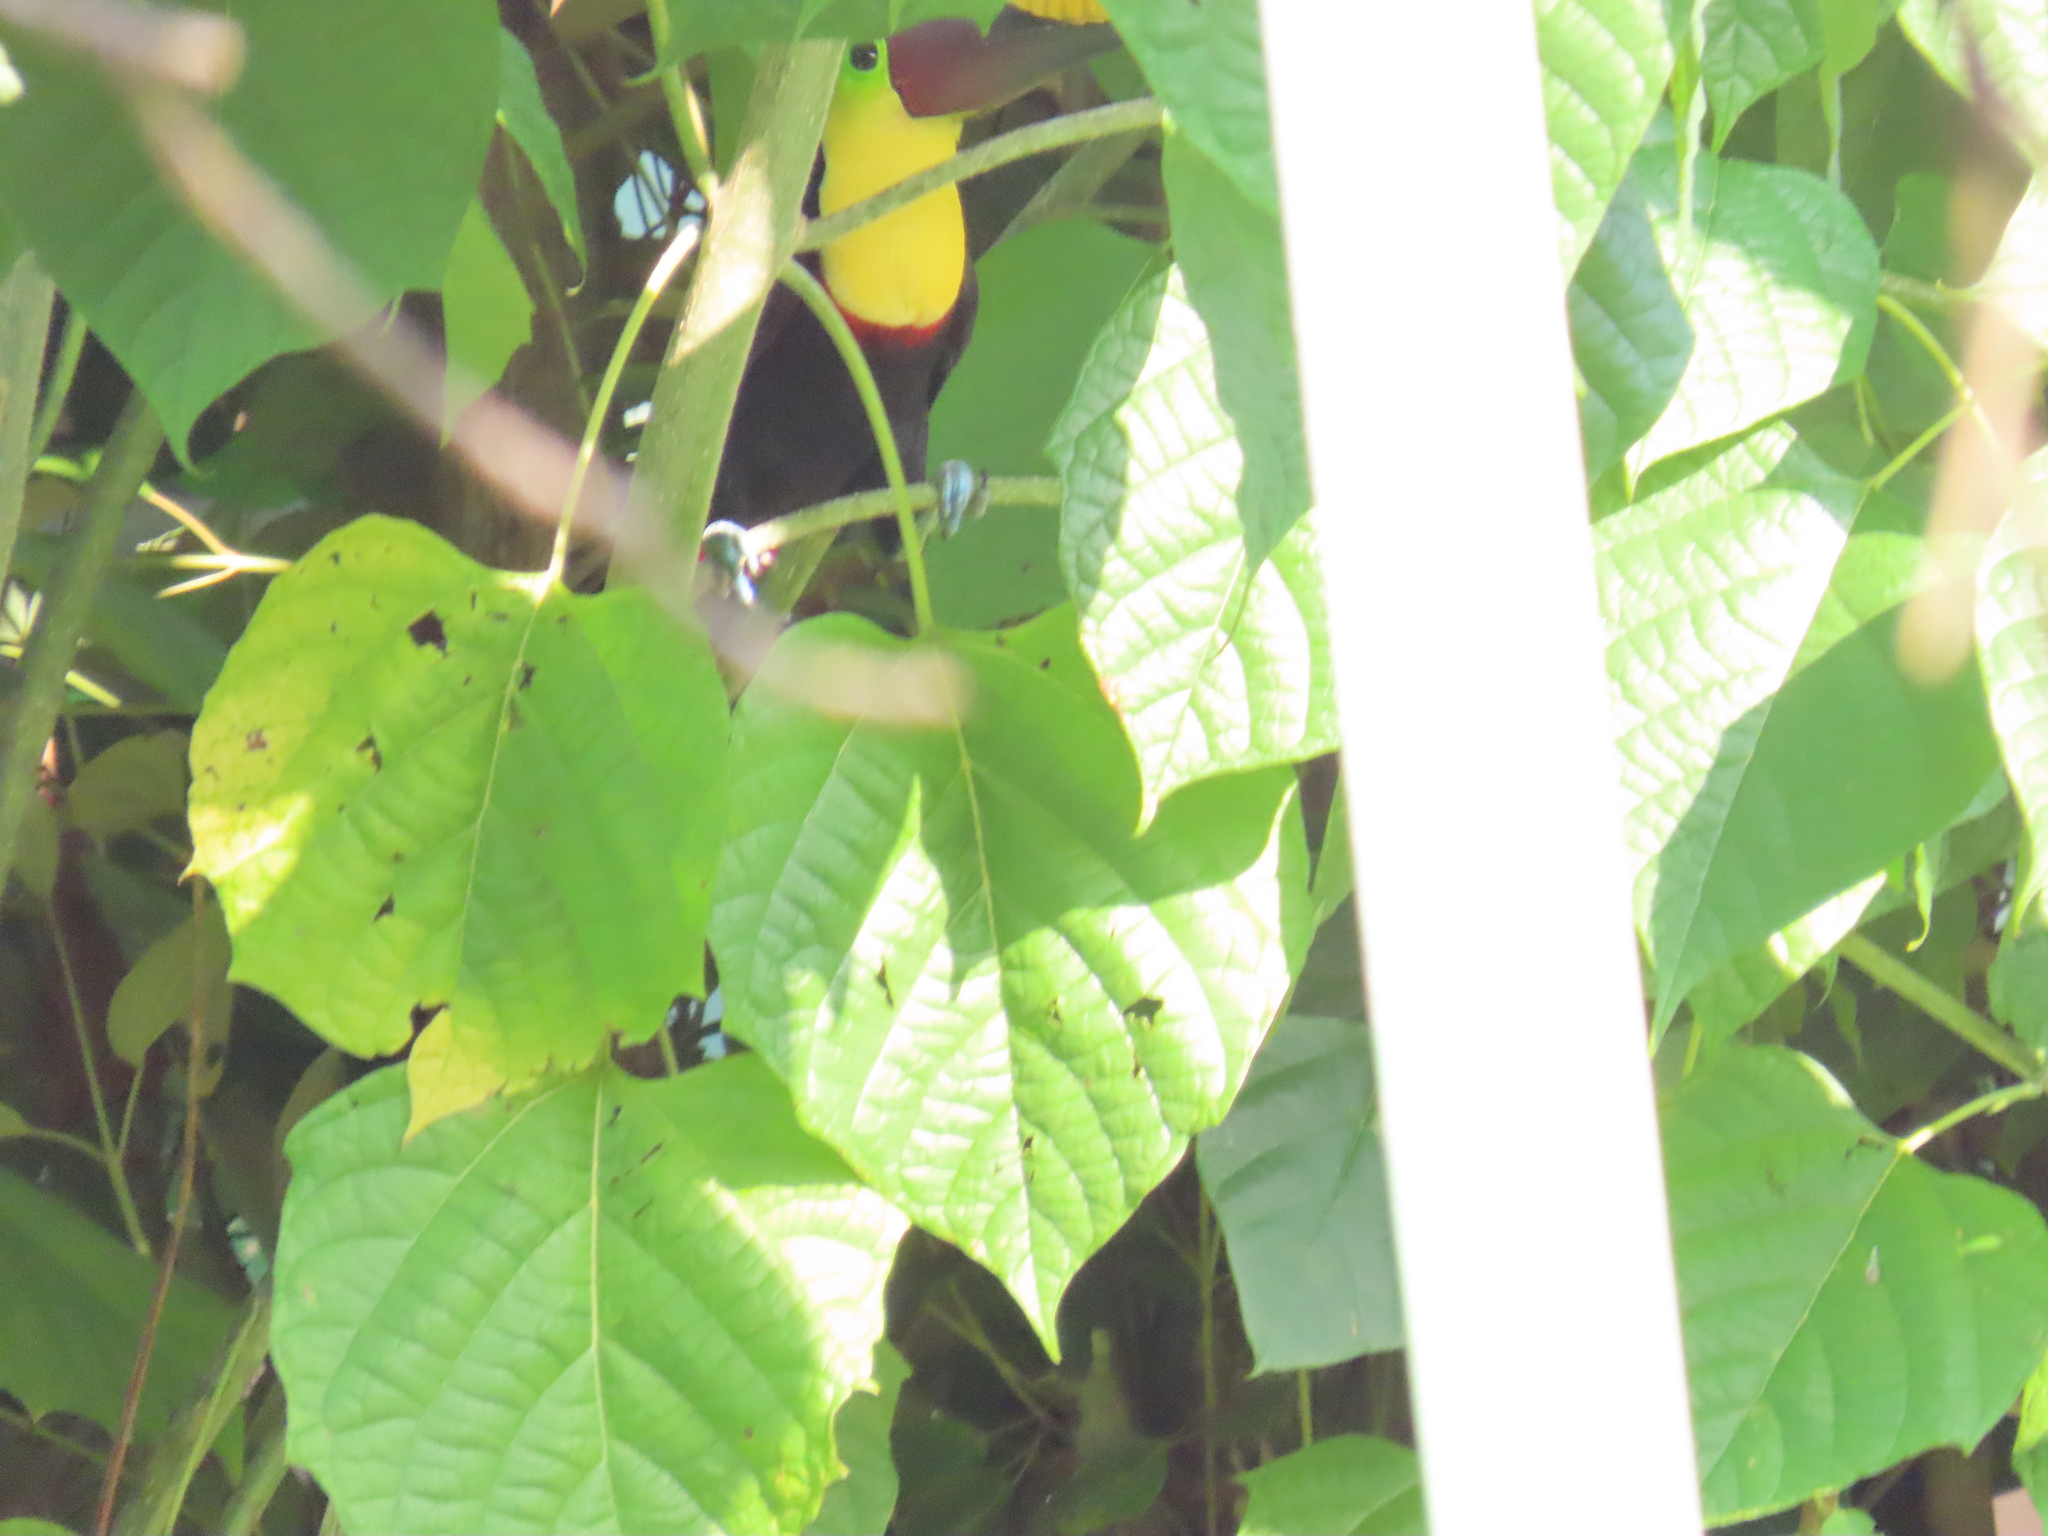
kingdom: Animalia
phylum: Chordata
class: Aves
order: Piciformes
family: Ramphastidae
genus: Ramphastos
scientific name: Ramphastos ambiguus
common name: Yellow-throated toucan
